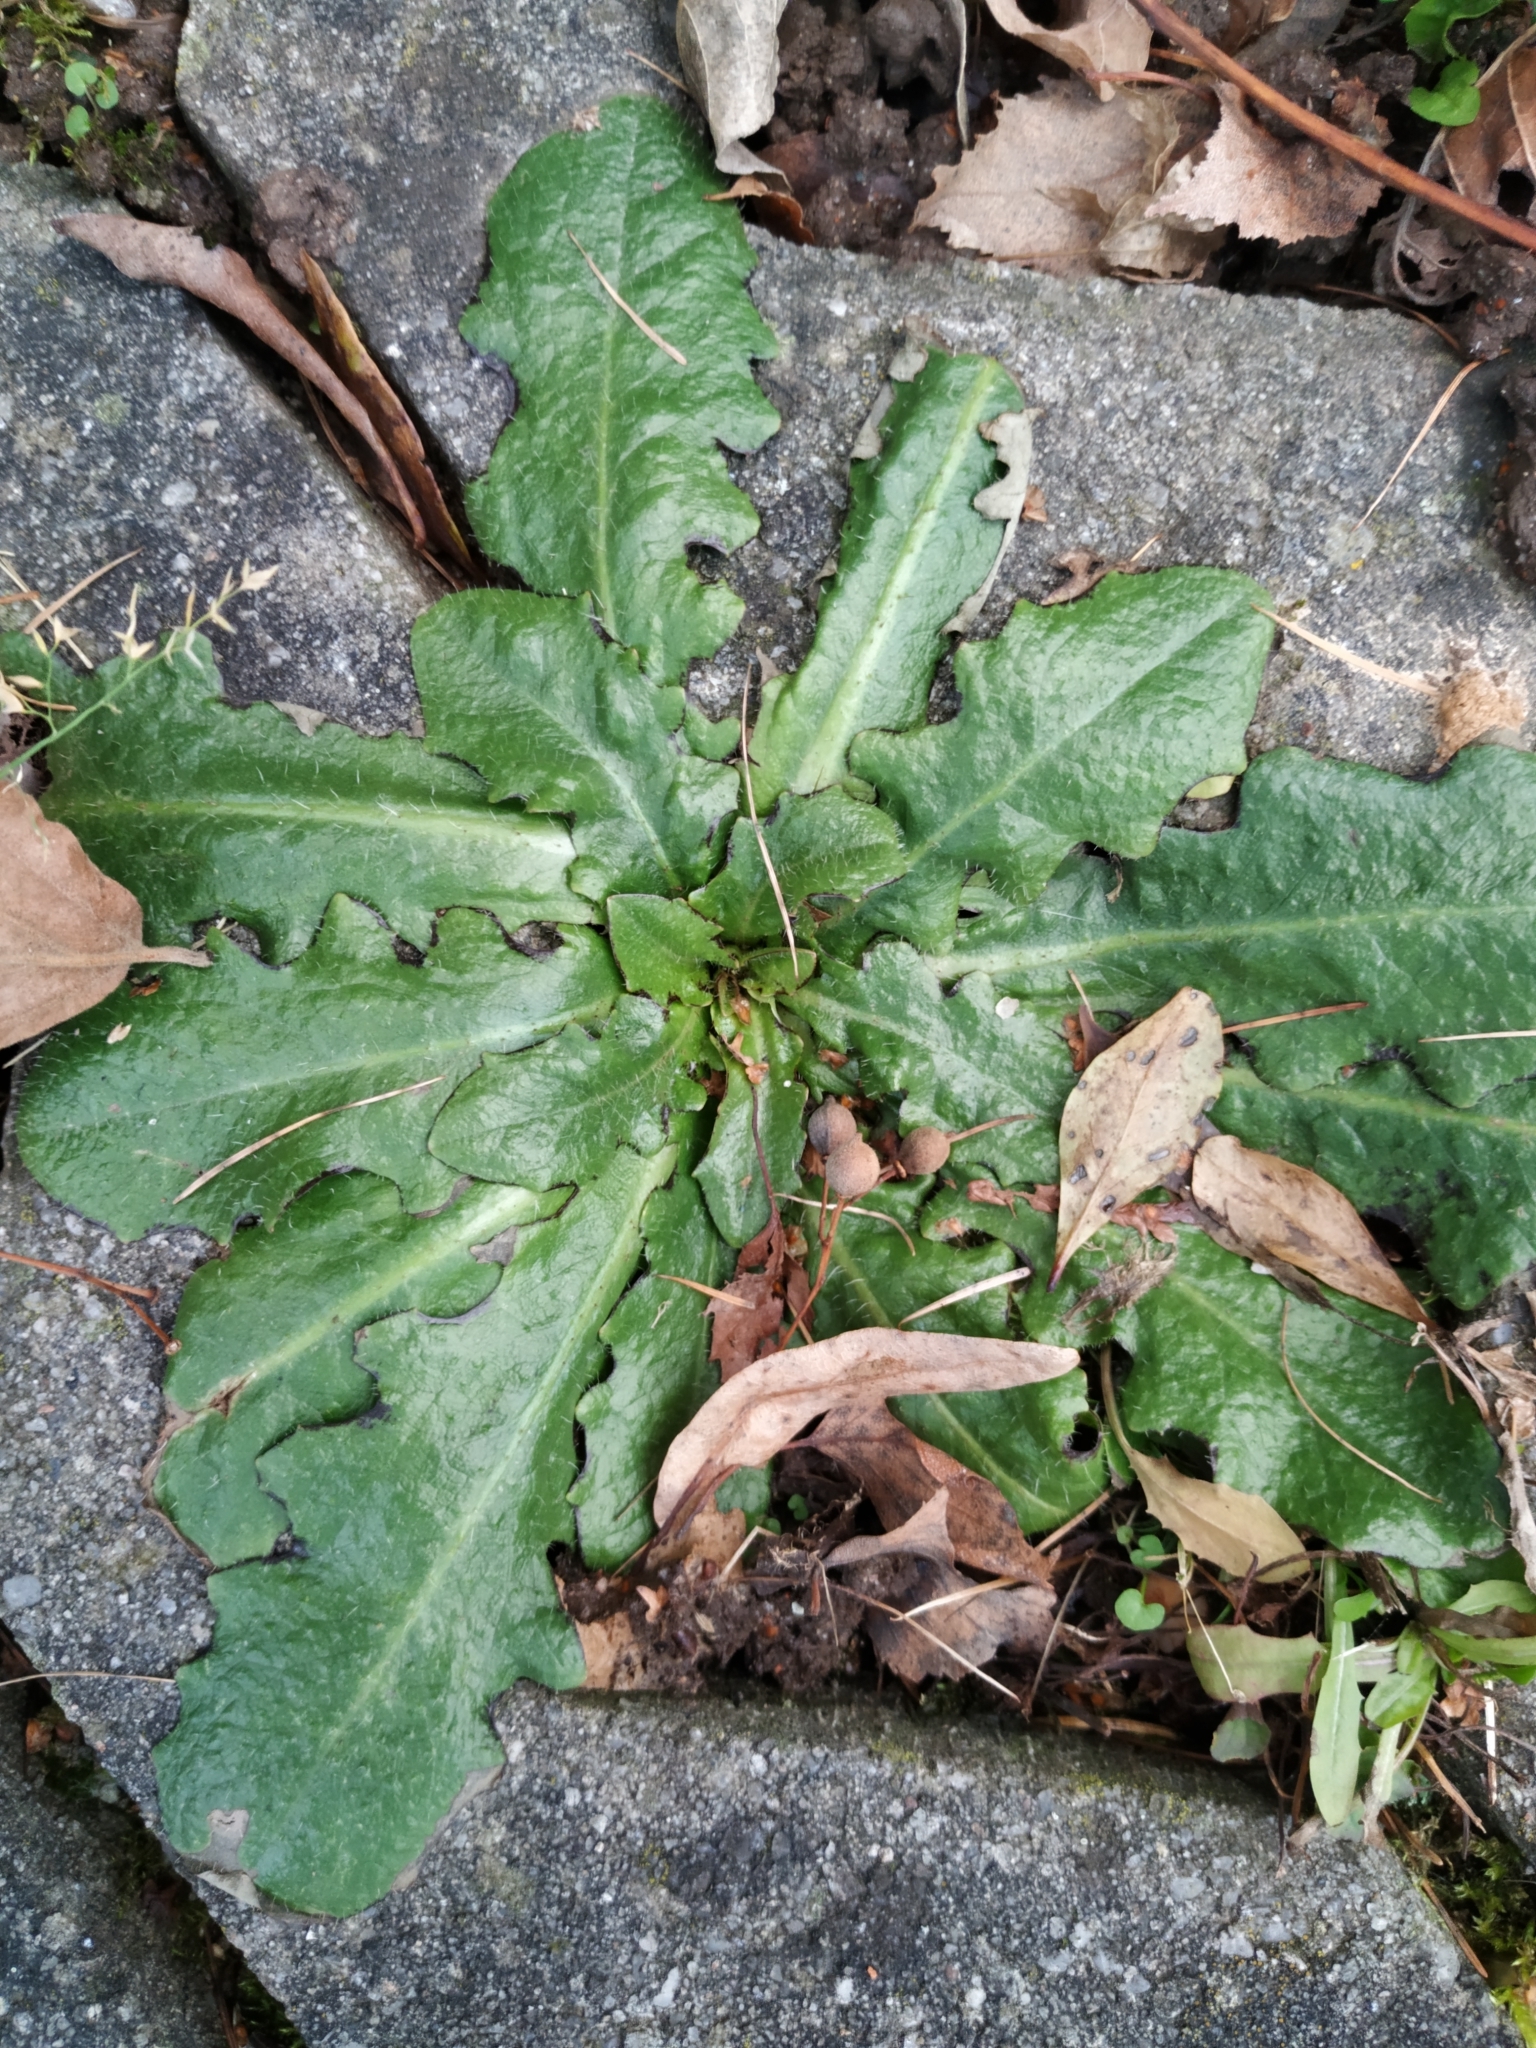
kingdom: Plantae
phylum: Tracheophyta
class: Magnoliopsida
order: Asterales
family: Asteraceae
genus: Hypochaeris
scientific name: Hypochaeris radicata
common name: Flatweed
